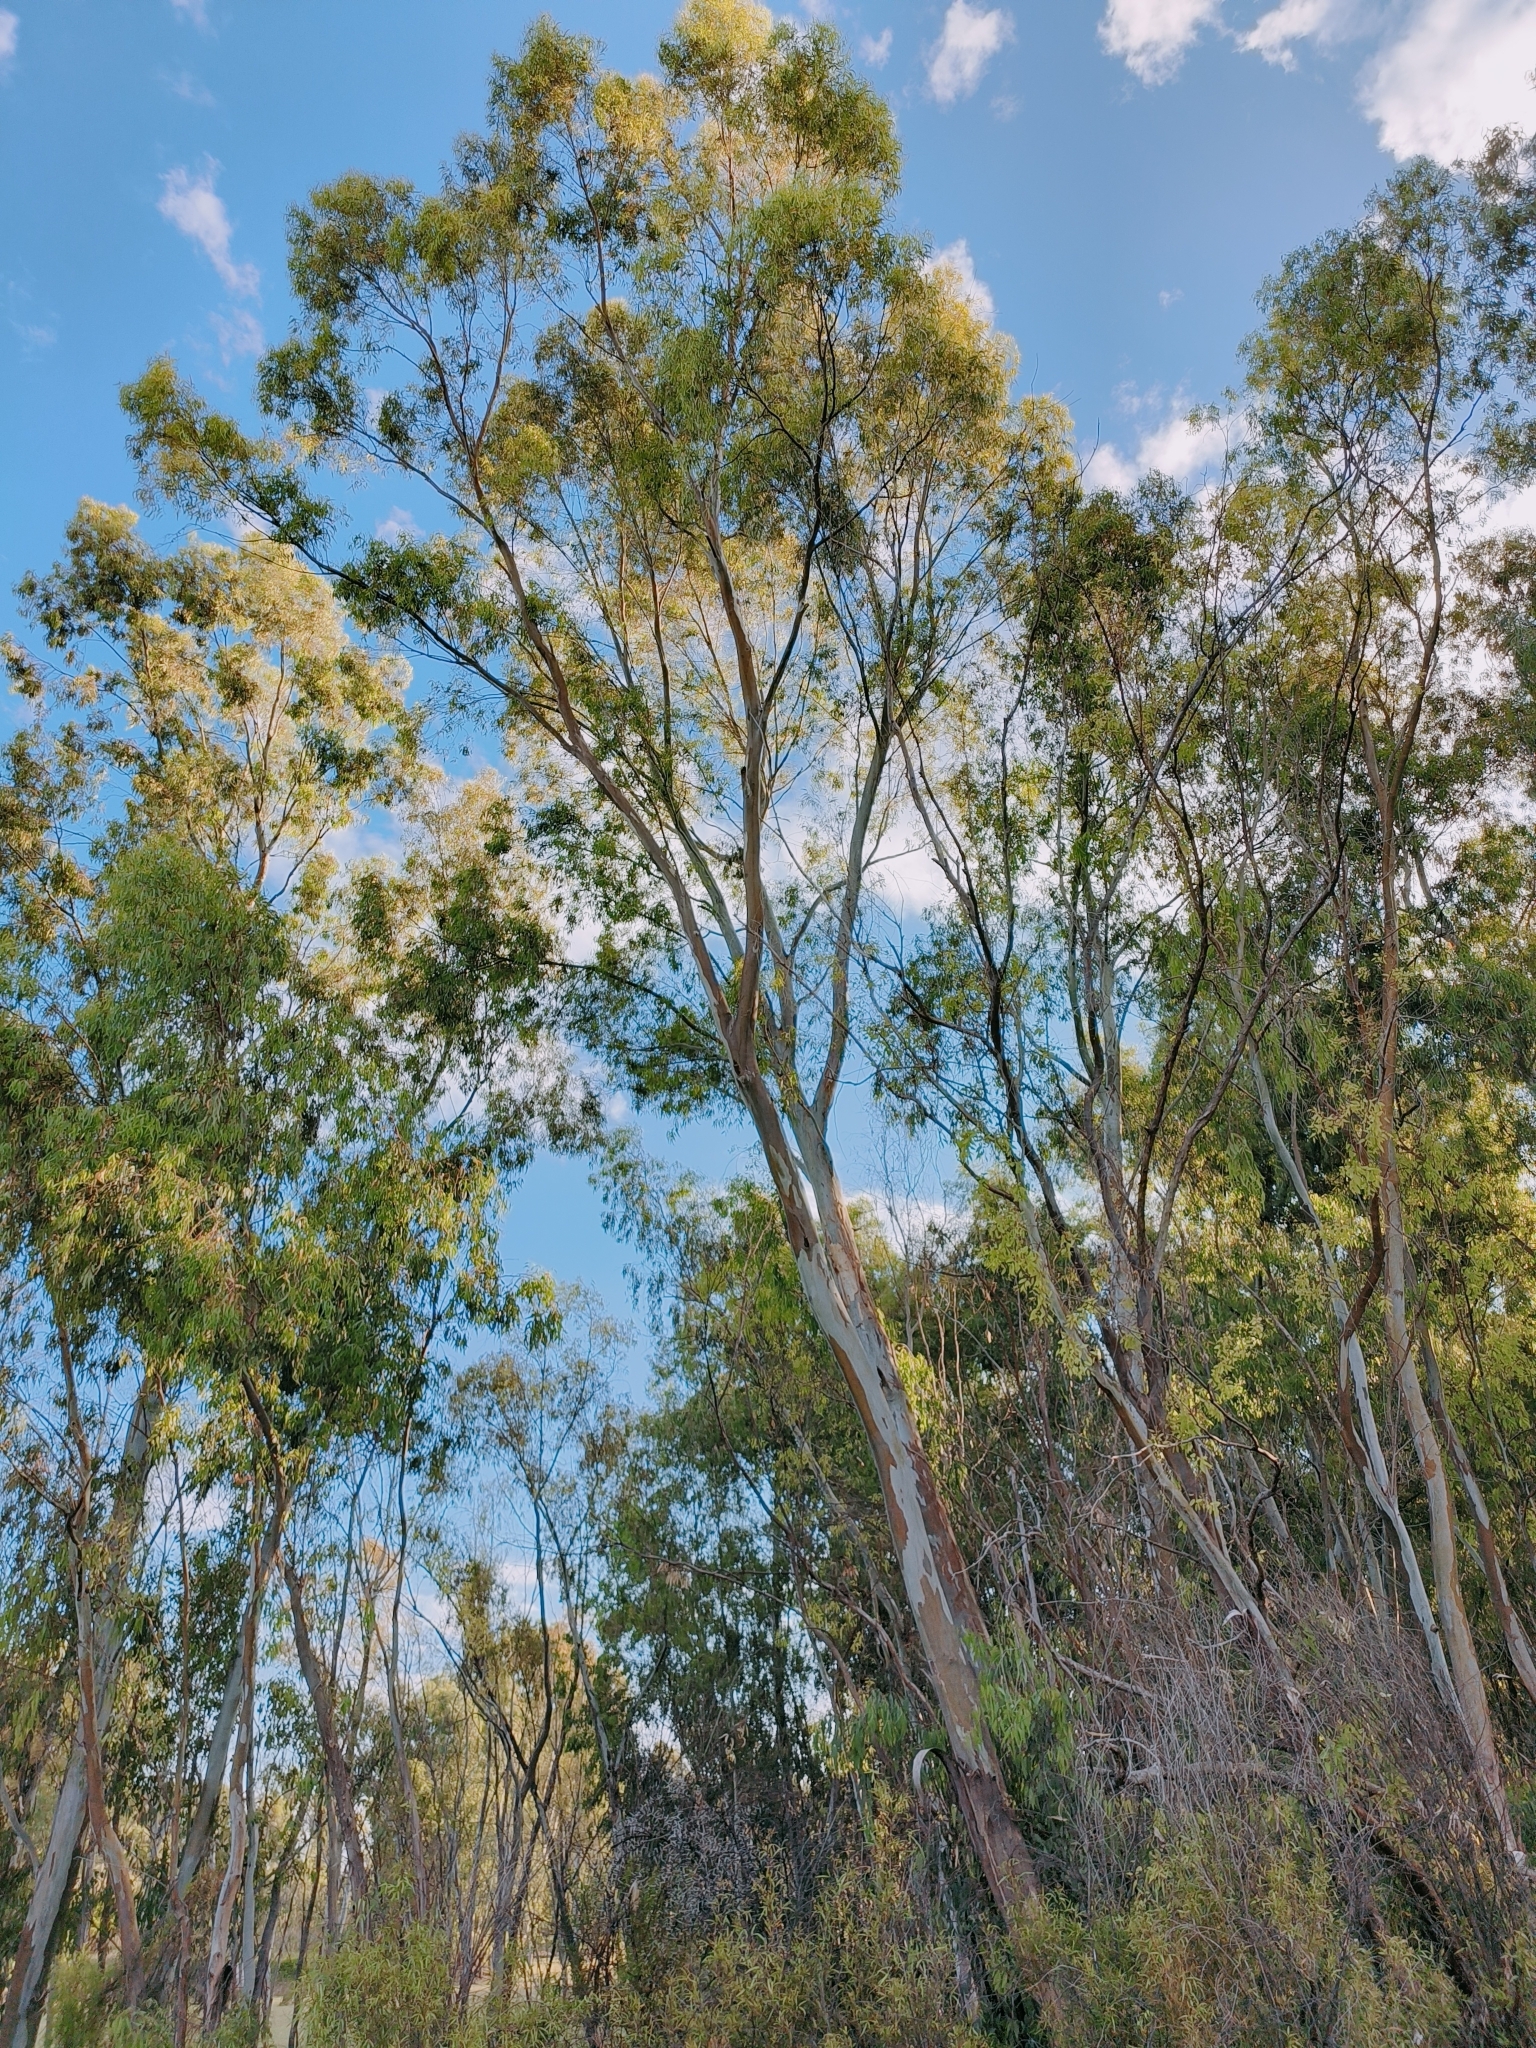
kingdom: Plantae
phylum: Tracheophyta
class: Magnoliopsida
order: Myrtales
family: Myrtaceae
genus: Eucalyptus
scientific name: Eucalyptus camaldulensis
